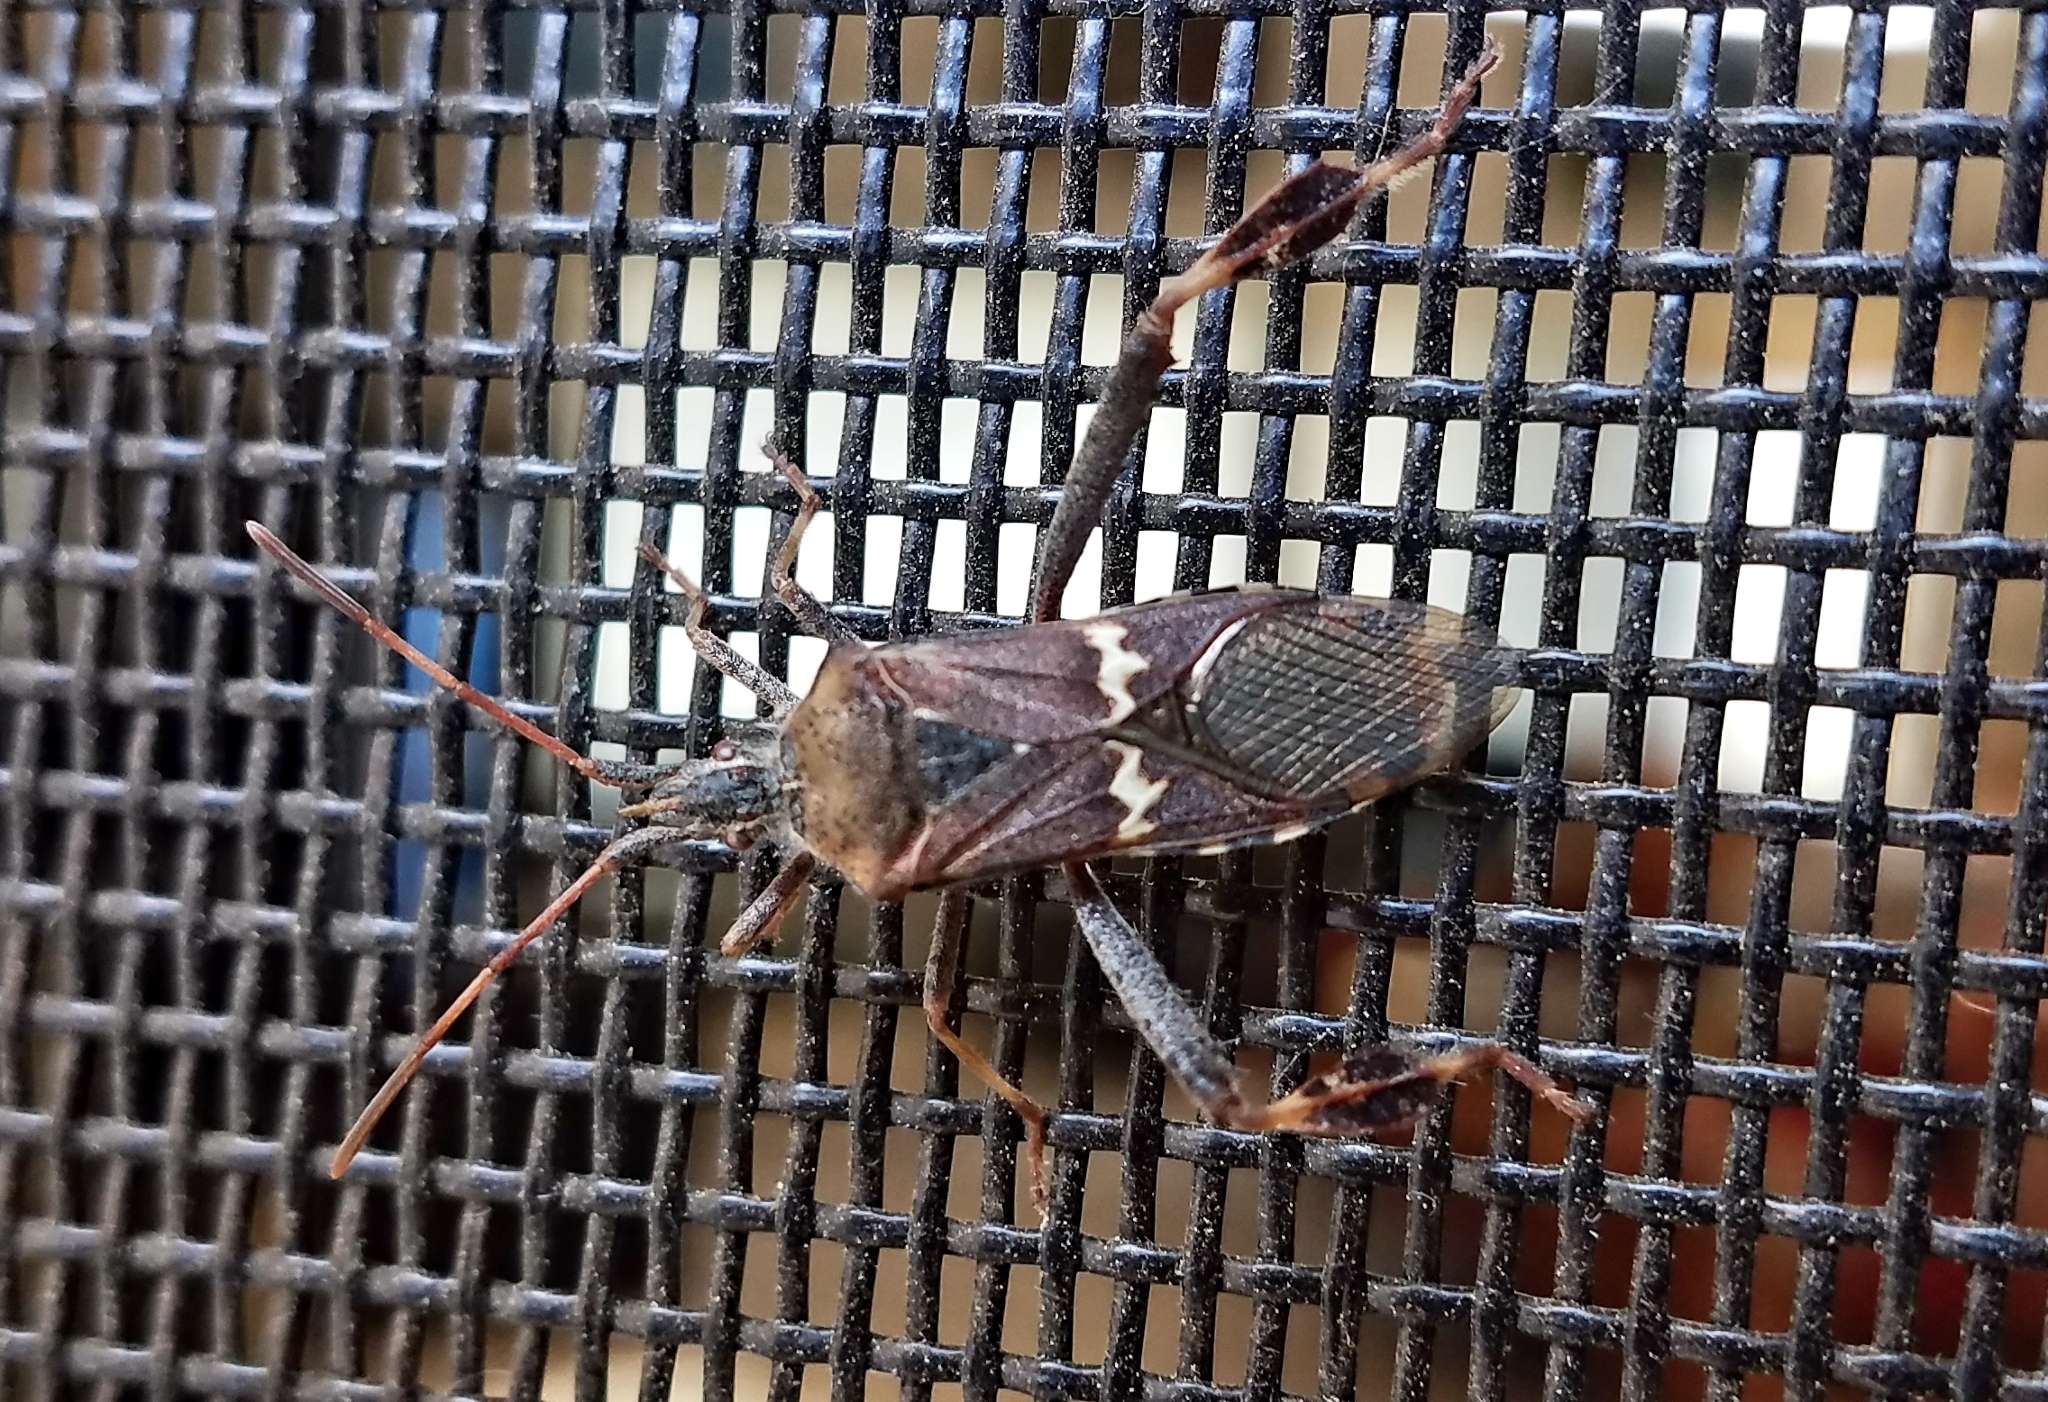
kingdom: Animalia
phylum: Arthropoda
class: Insecta
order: Hemiptera
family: Coreidae
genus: Leptoglossus
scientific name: Leptoglossus clypealis
